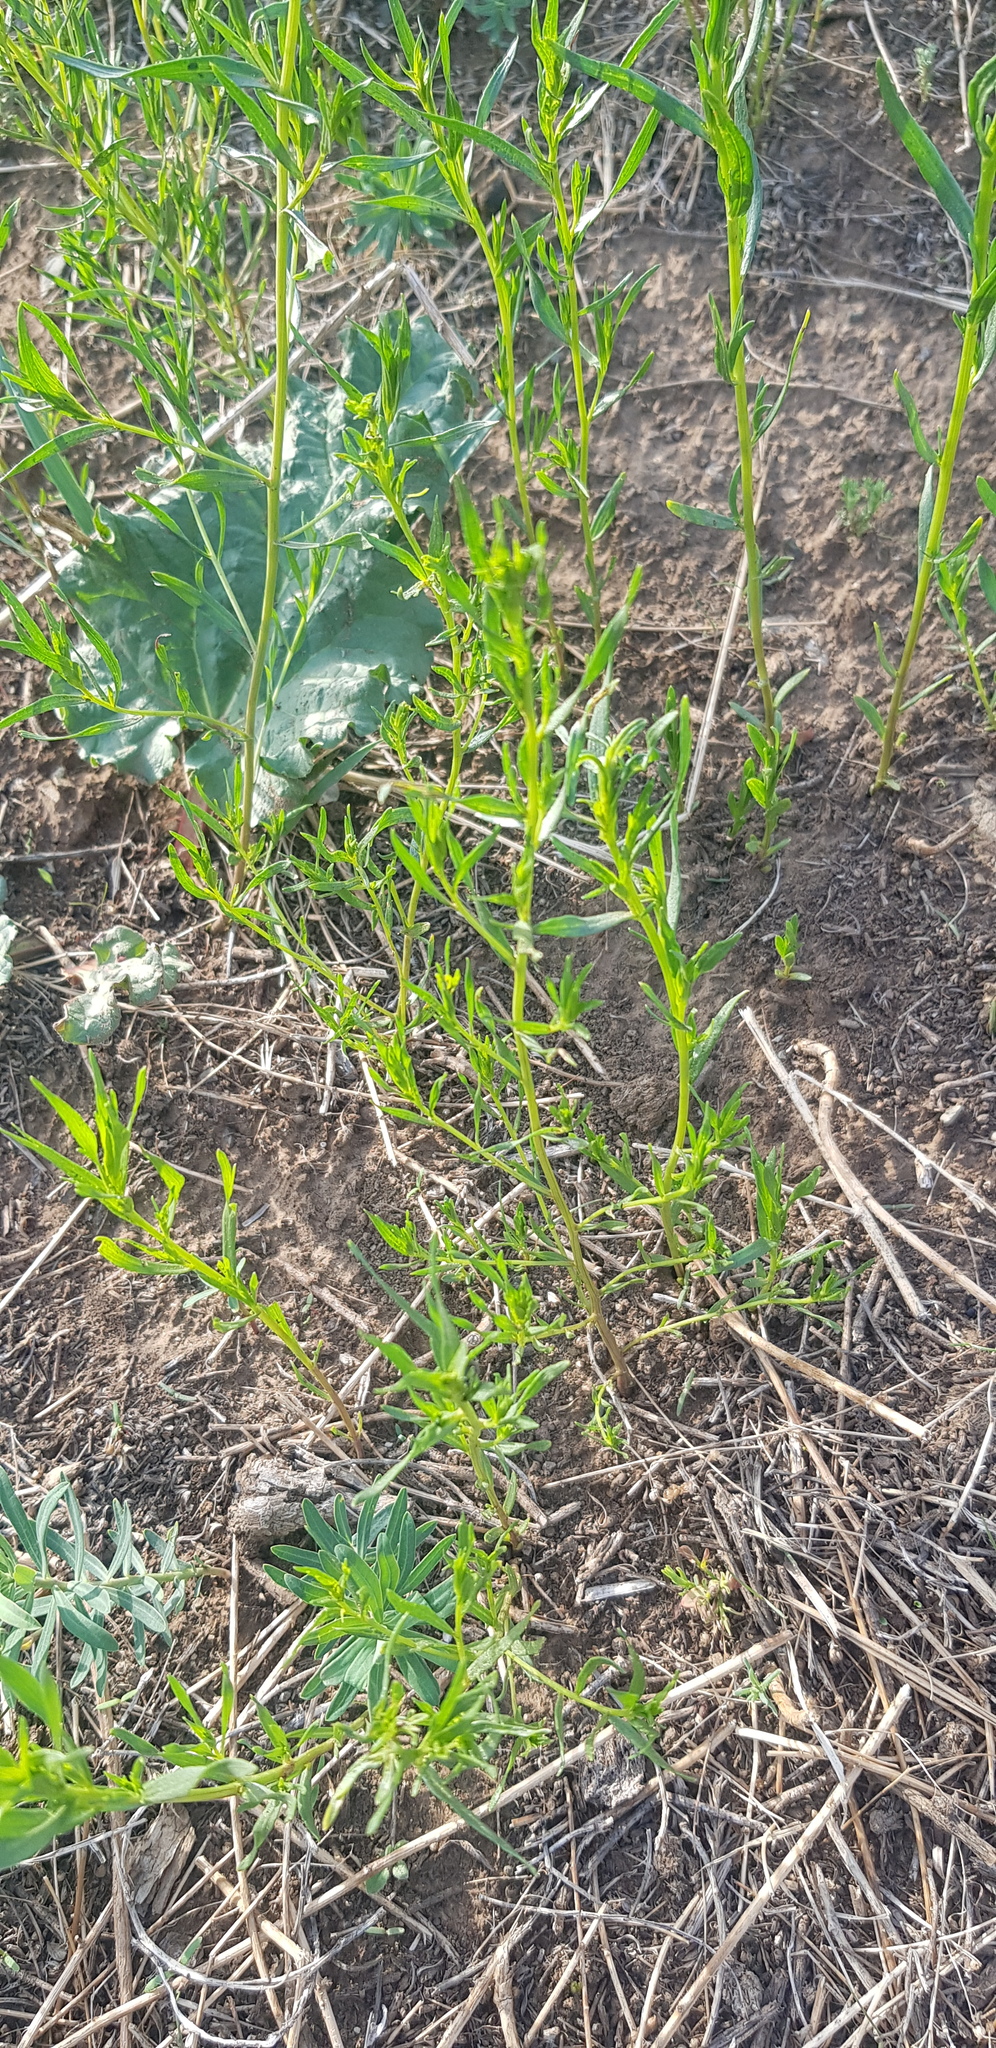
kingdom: Plantae
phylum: Tracheophyta
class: Magnoliopsida
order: Asterales
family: Asteraceae
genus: Artemisia
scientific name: Artemisia dracunculus
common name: Tarragon
